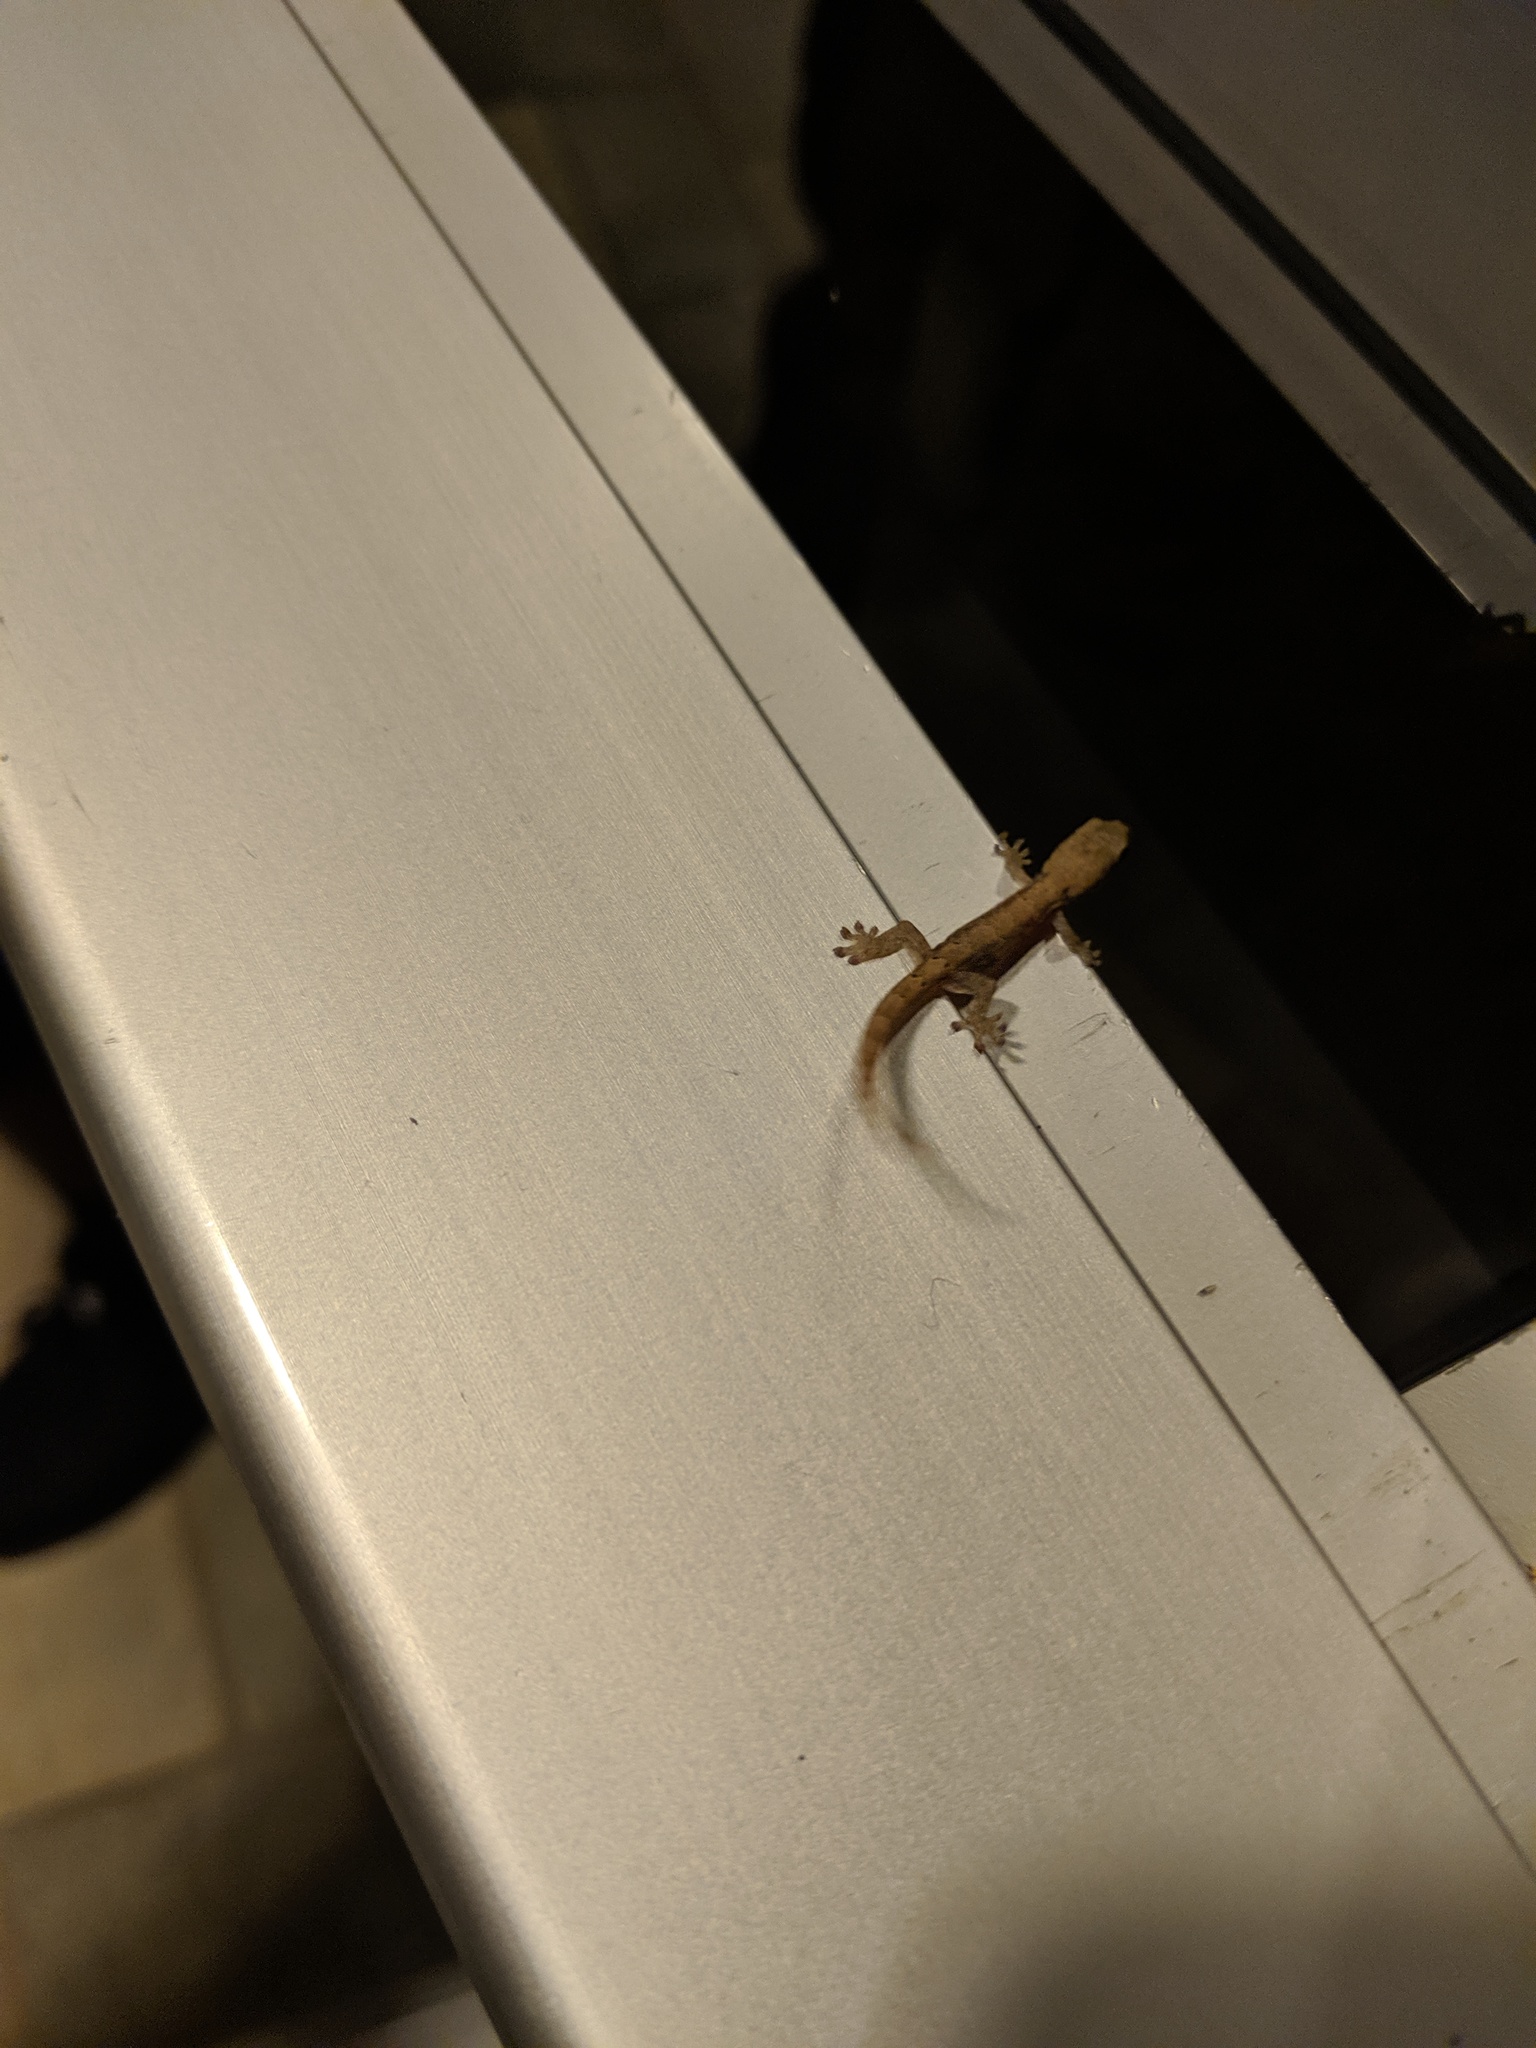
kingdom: Animalia
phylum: Chordata
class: Squamata
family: Gekkonidae
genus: Lepidodactylus
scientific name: Lepidodactylus lugubris
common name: Mourning gecko
